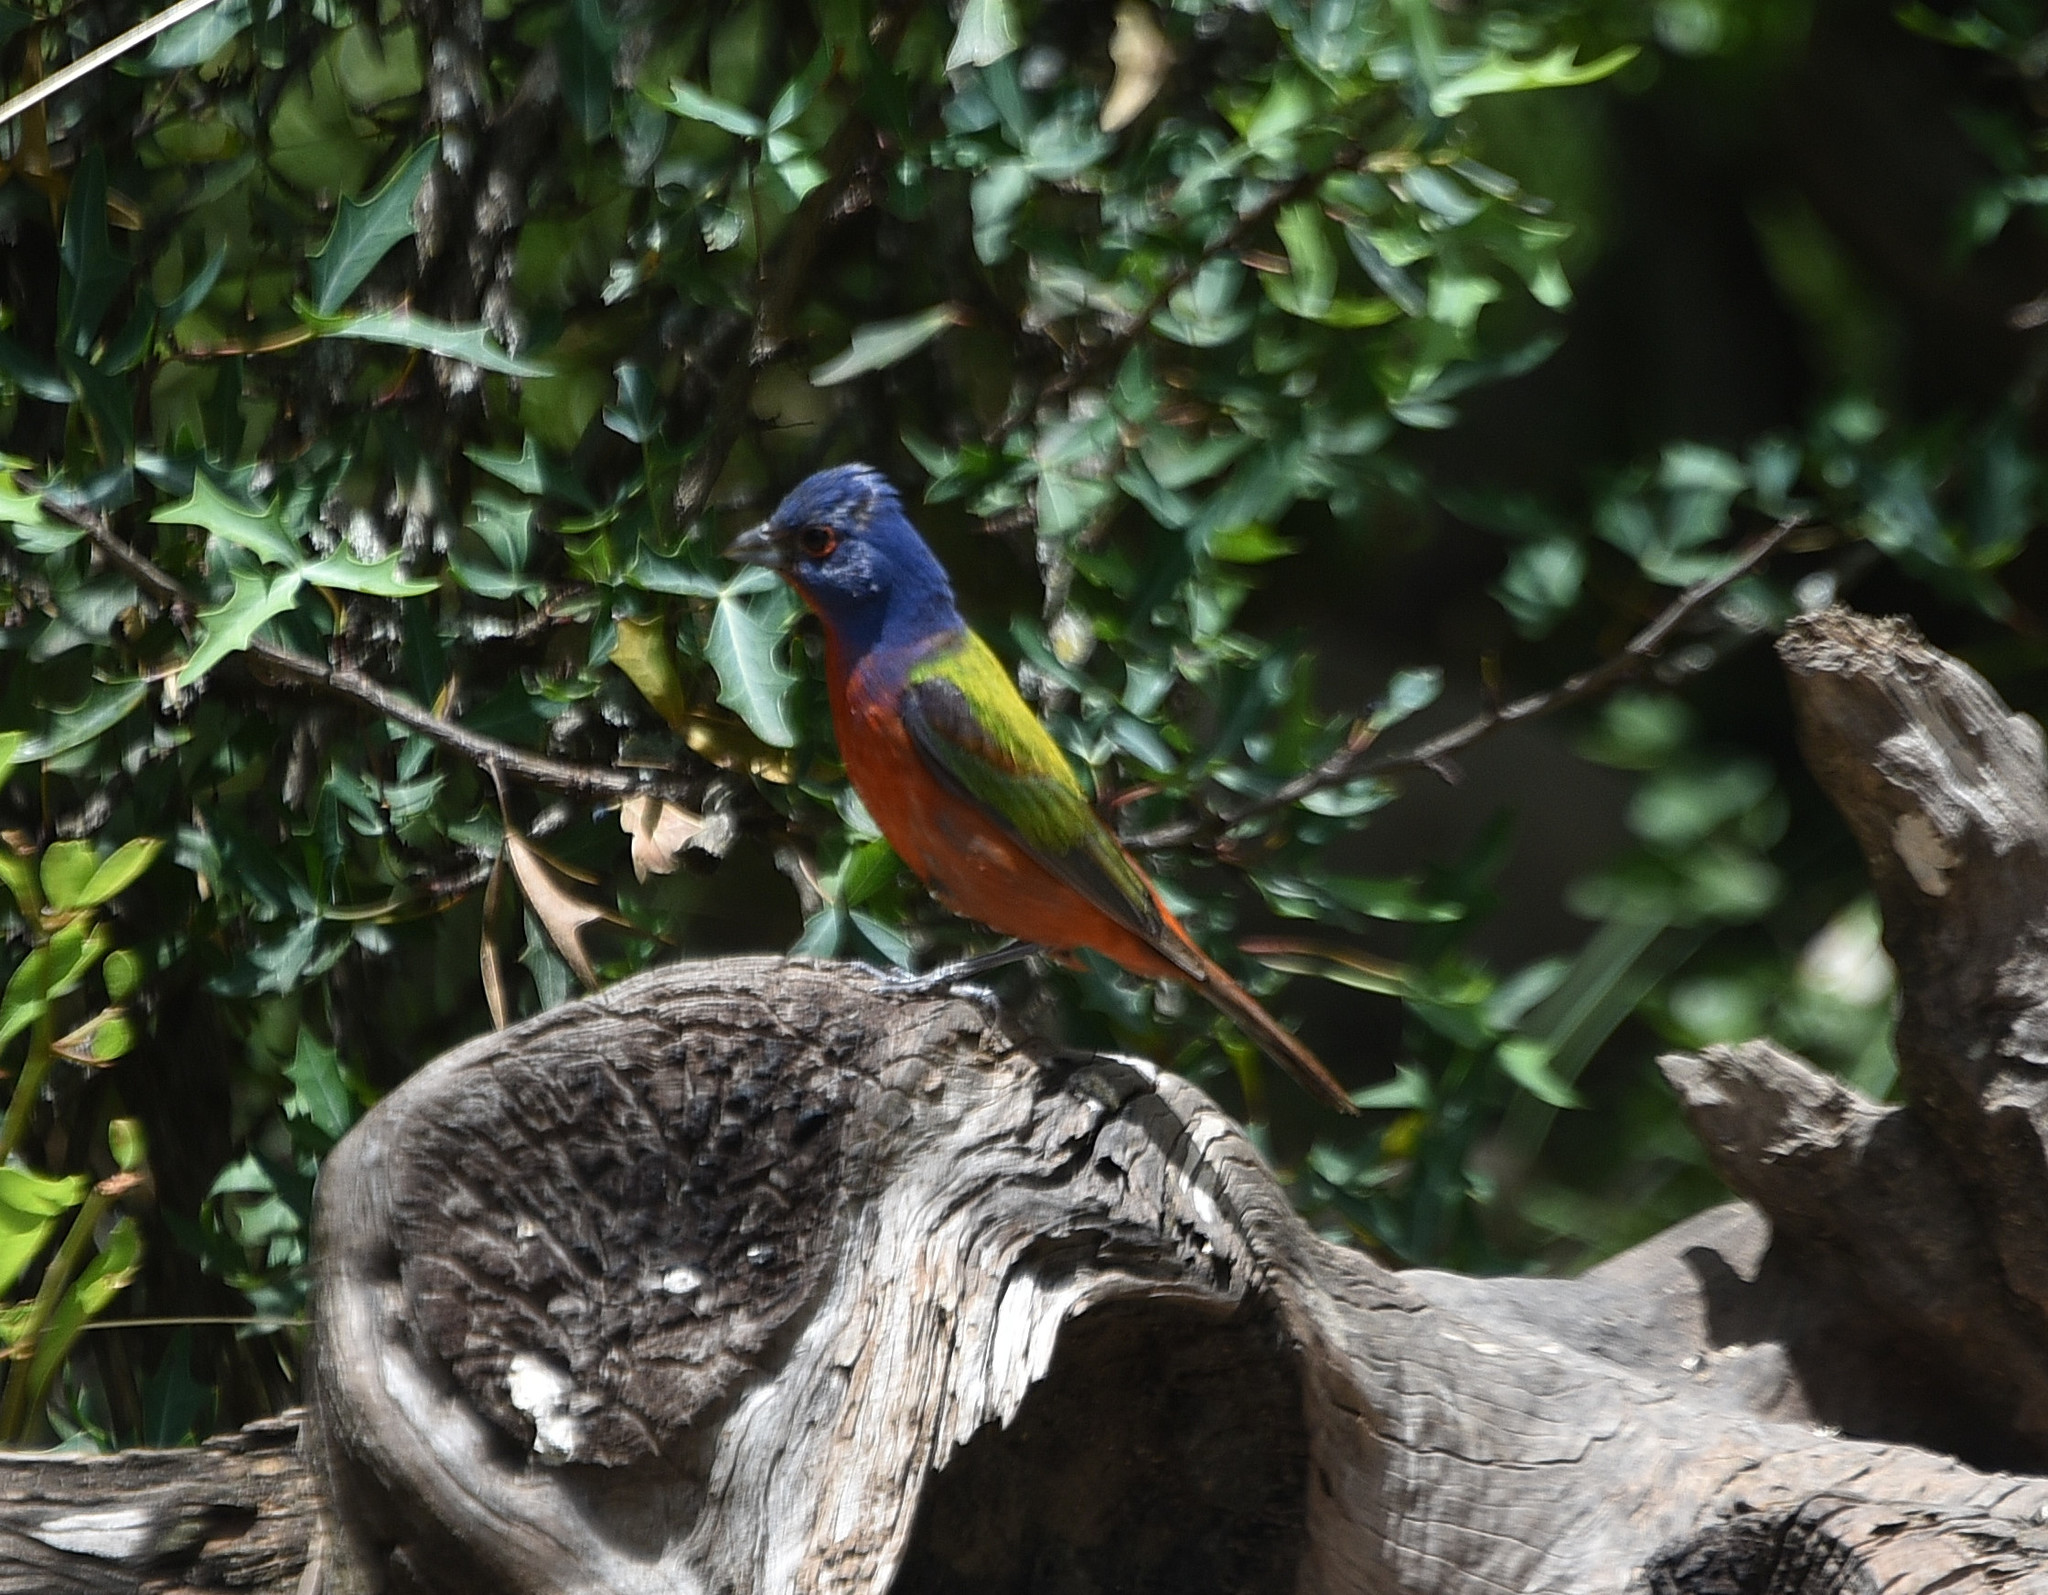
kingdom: Animalia
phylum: Chordata
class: Aves
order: Passeriformes
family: Cardinalidae
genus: Passerina
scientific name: Passerina ciris
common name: Painted bunting
